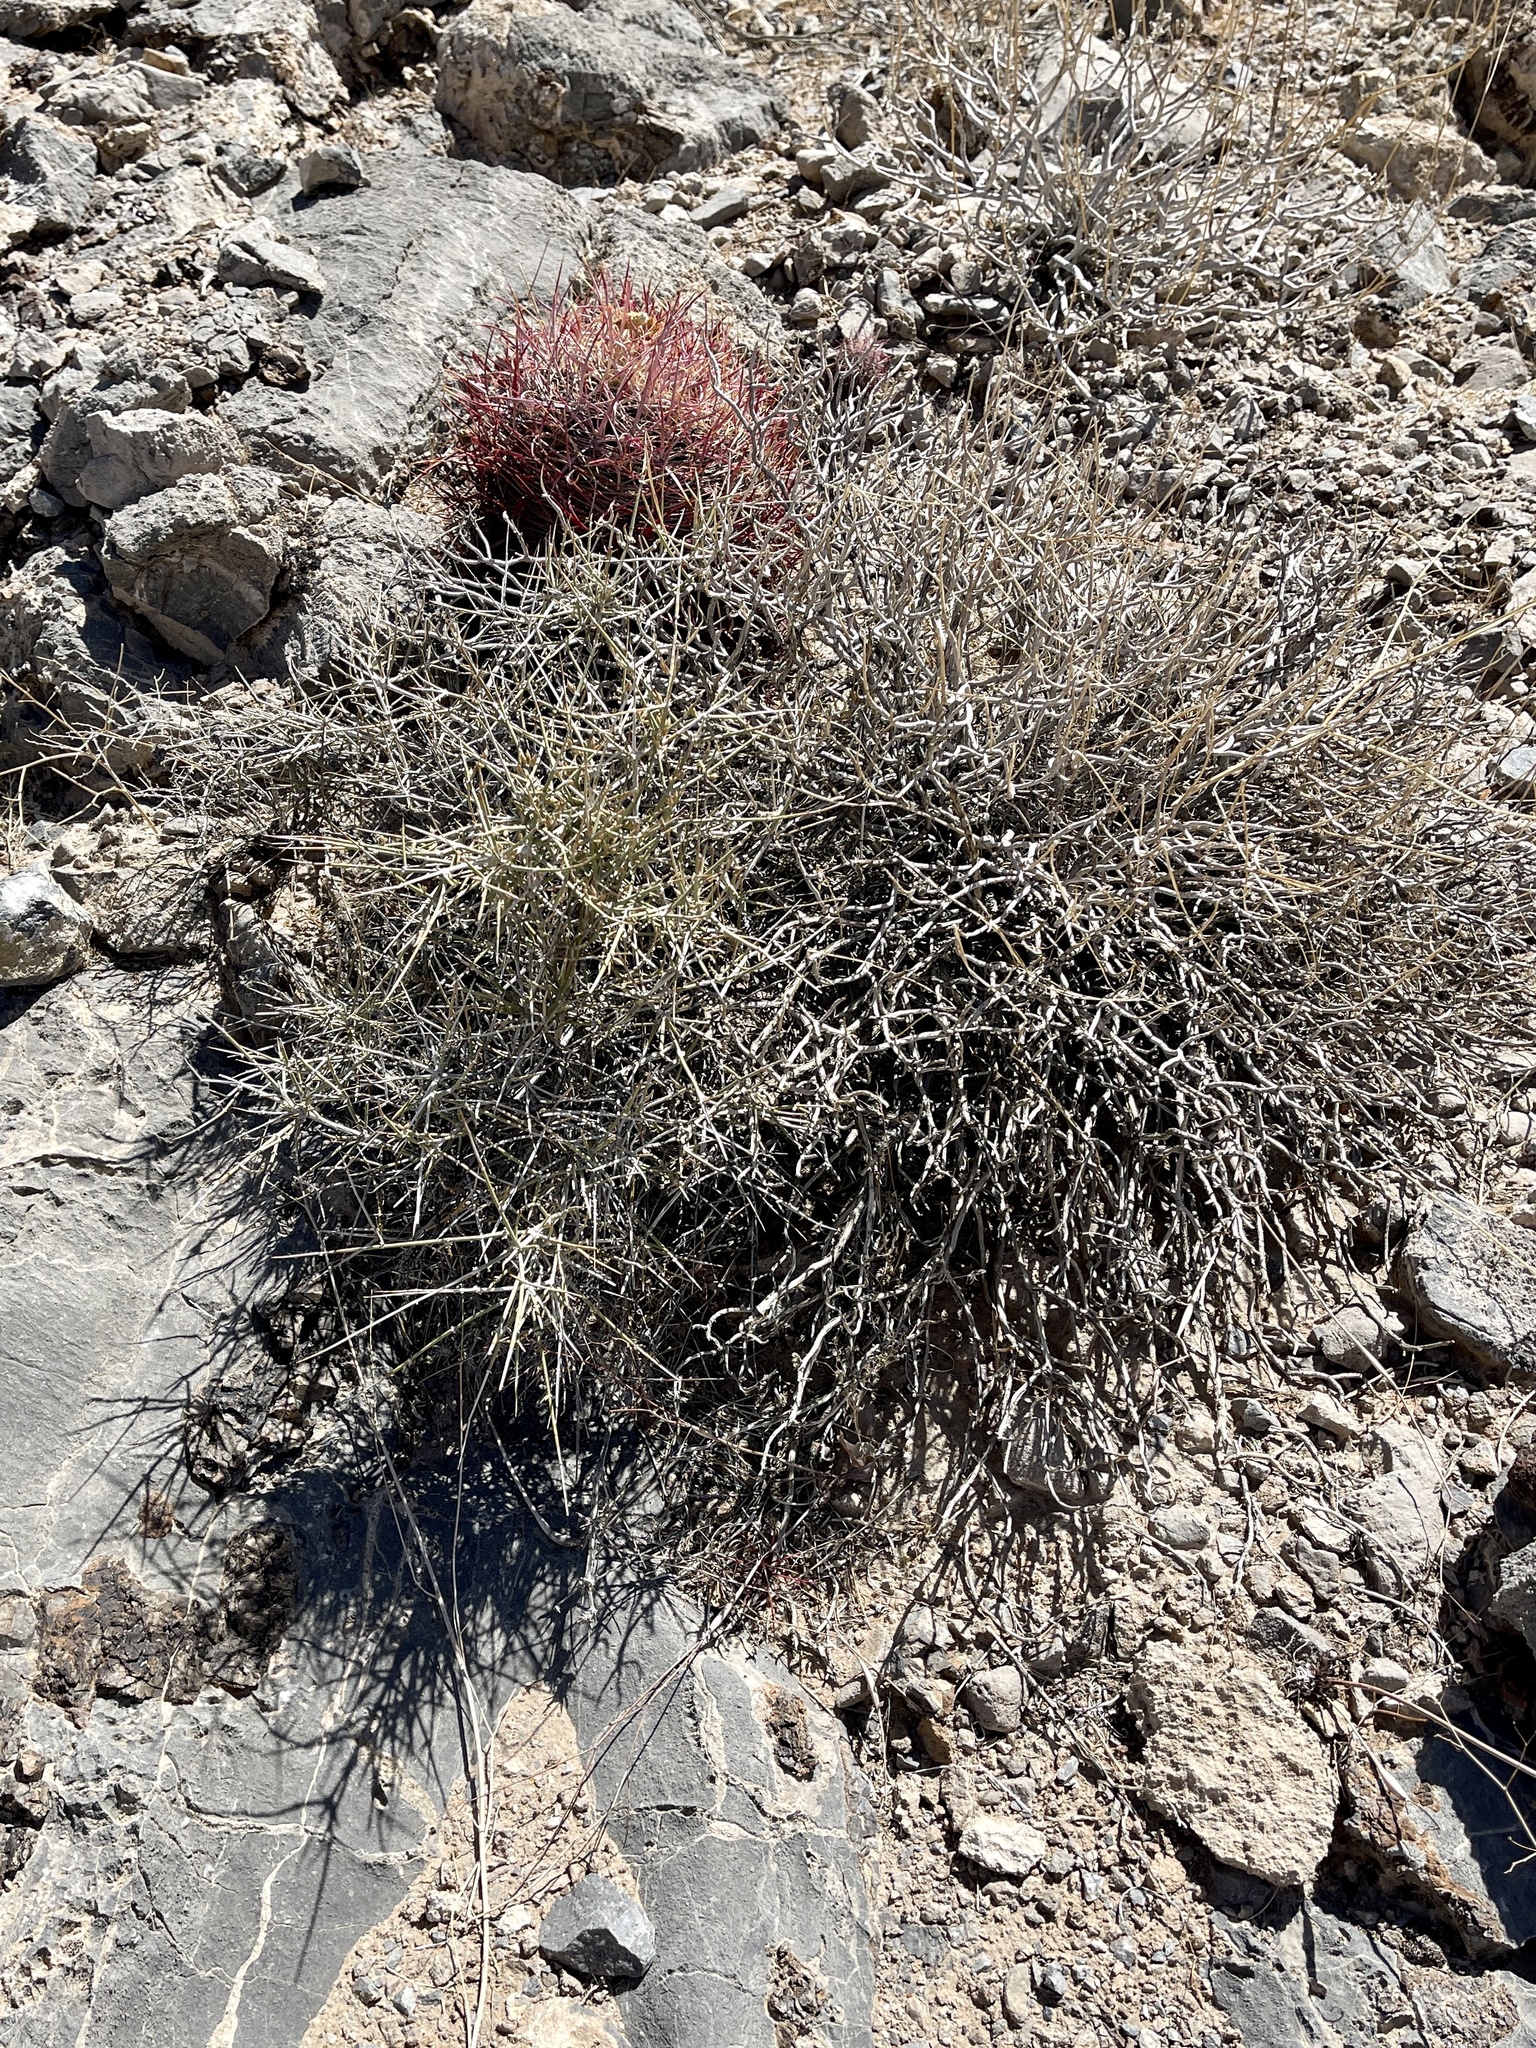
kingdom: Plantae
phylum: Tracheophyta
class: Gnetopsida
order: Ephedrales
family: Ephedraceae
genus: Ephedra
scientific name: Ephedra nevadensis
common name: Gray ephedra
